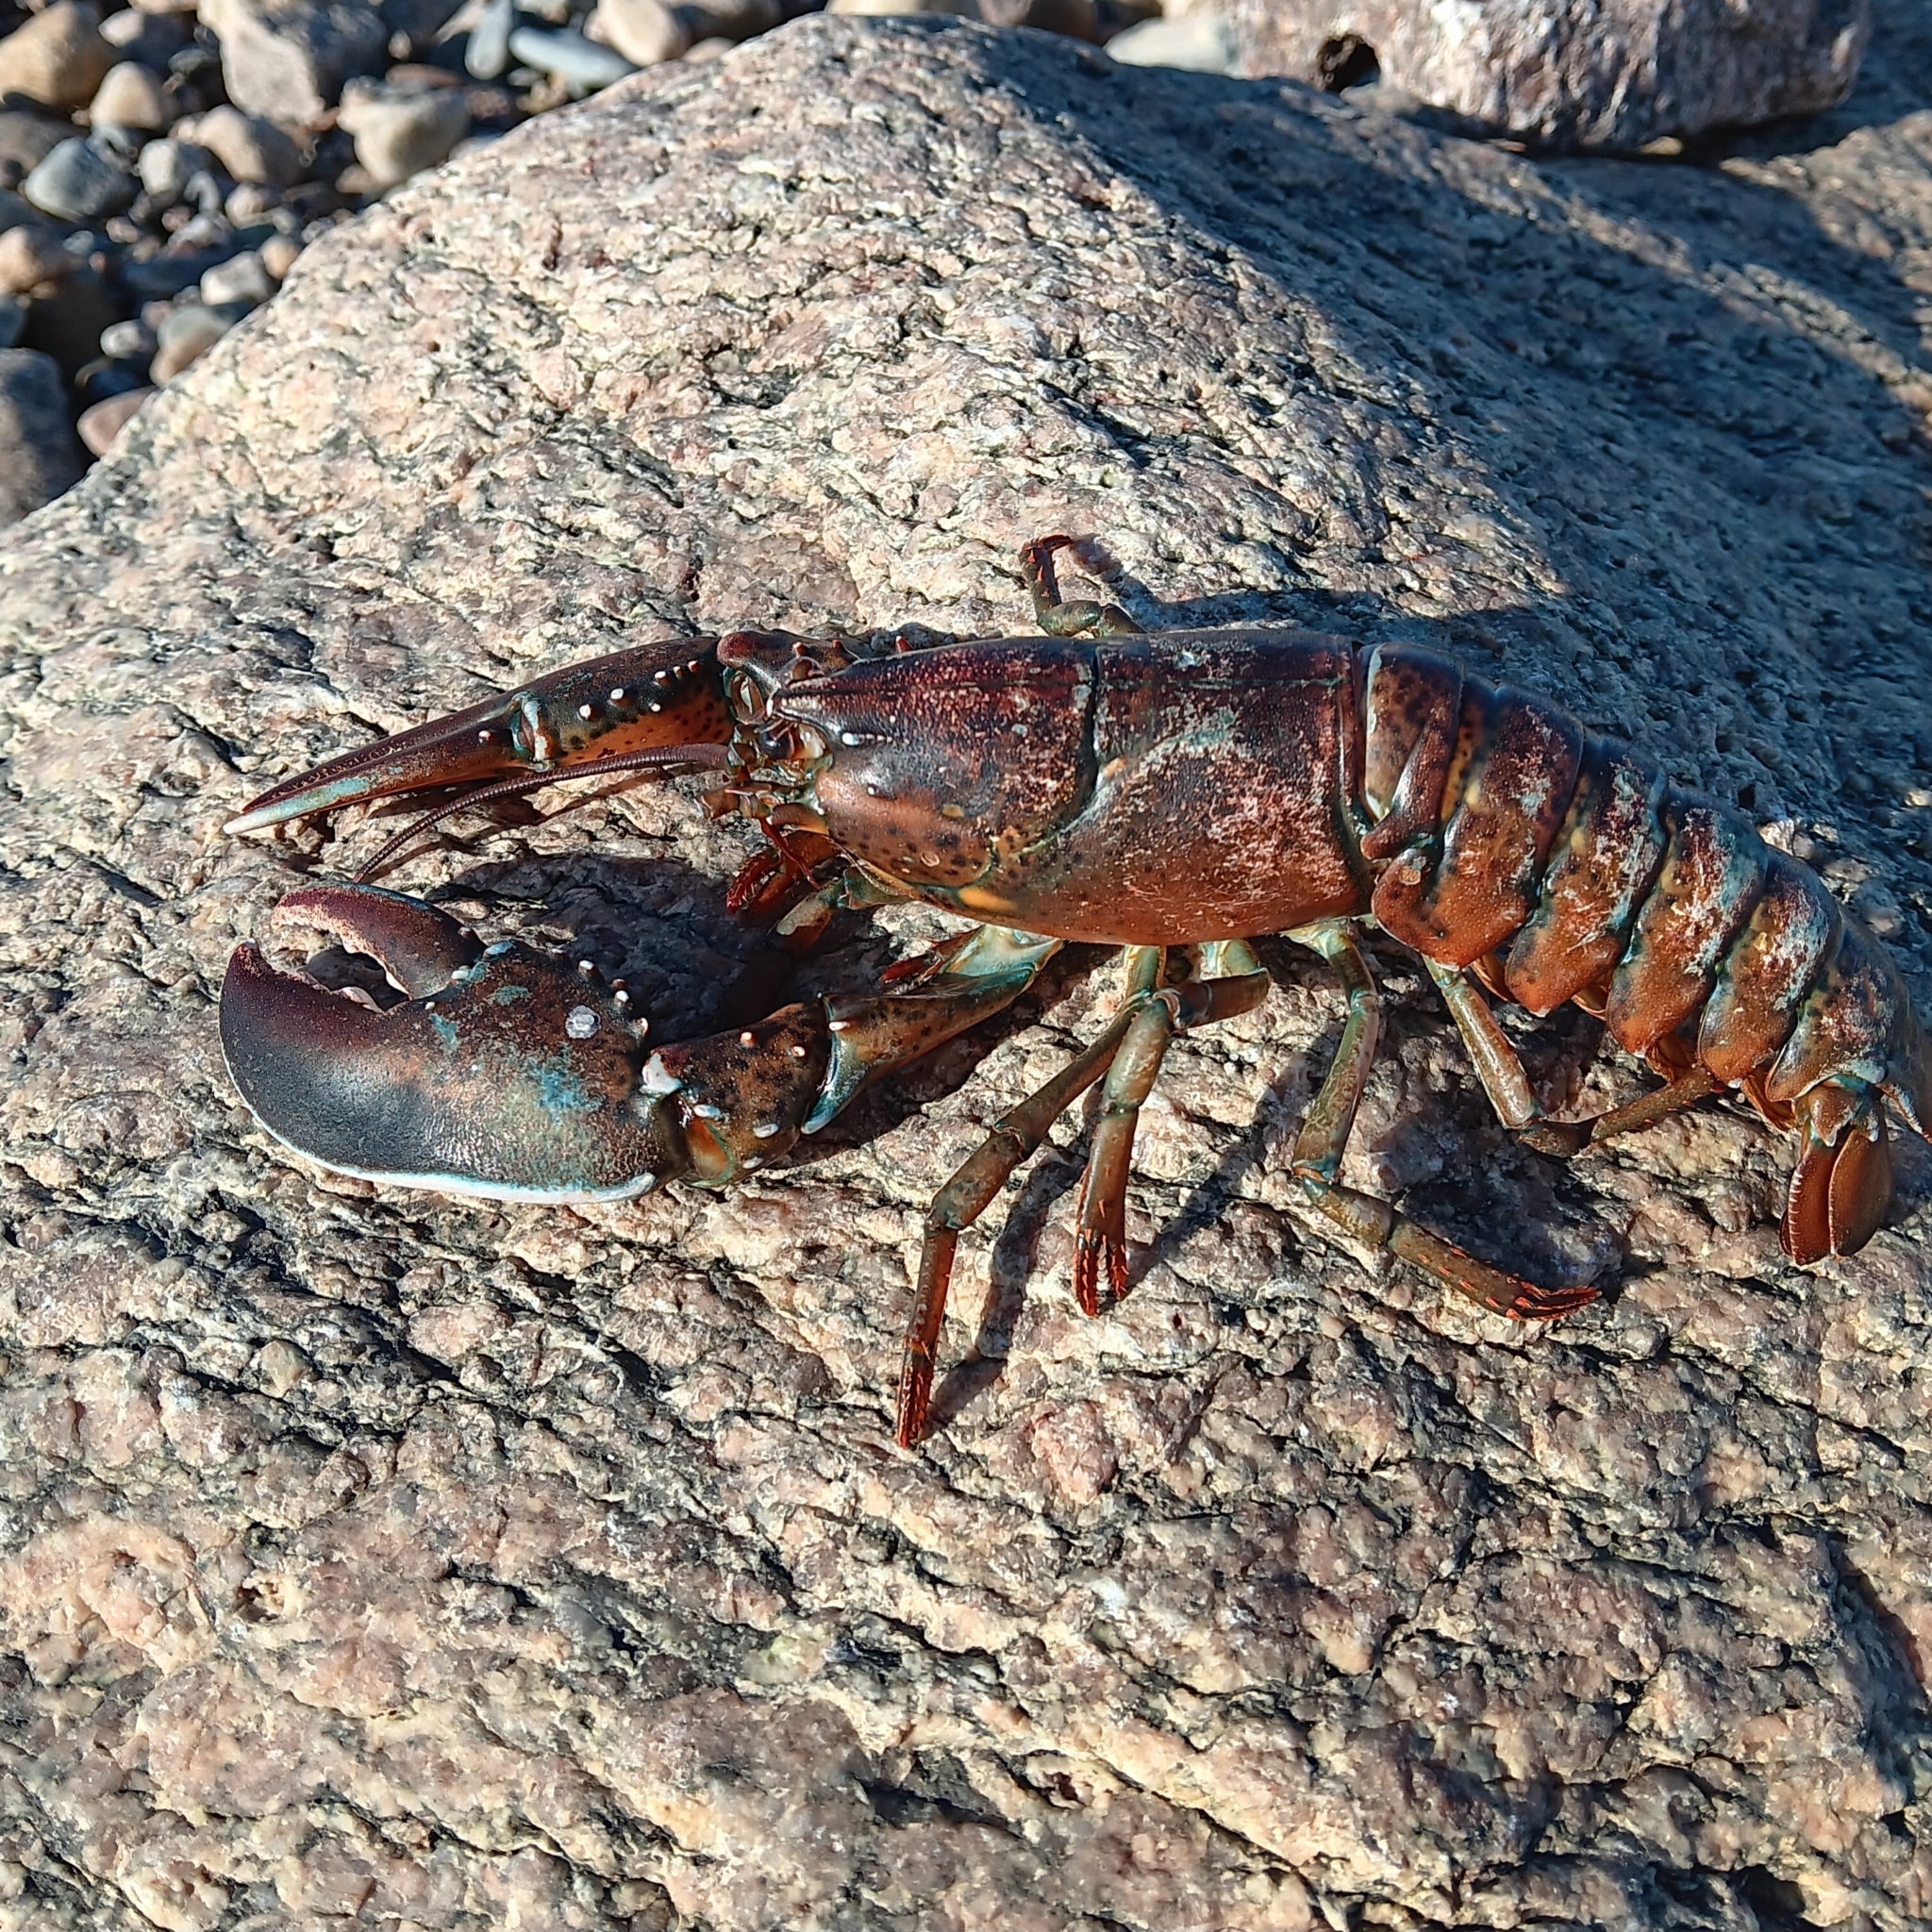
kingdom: Animalia
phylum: Arthropoda
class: Malacostraca
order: Decapoda
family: Nephropidae
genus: Homarus
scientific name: Homarus americanus
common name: American lobster
